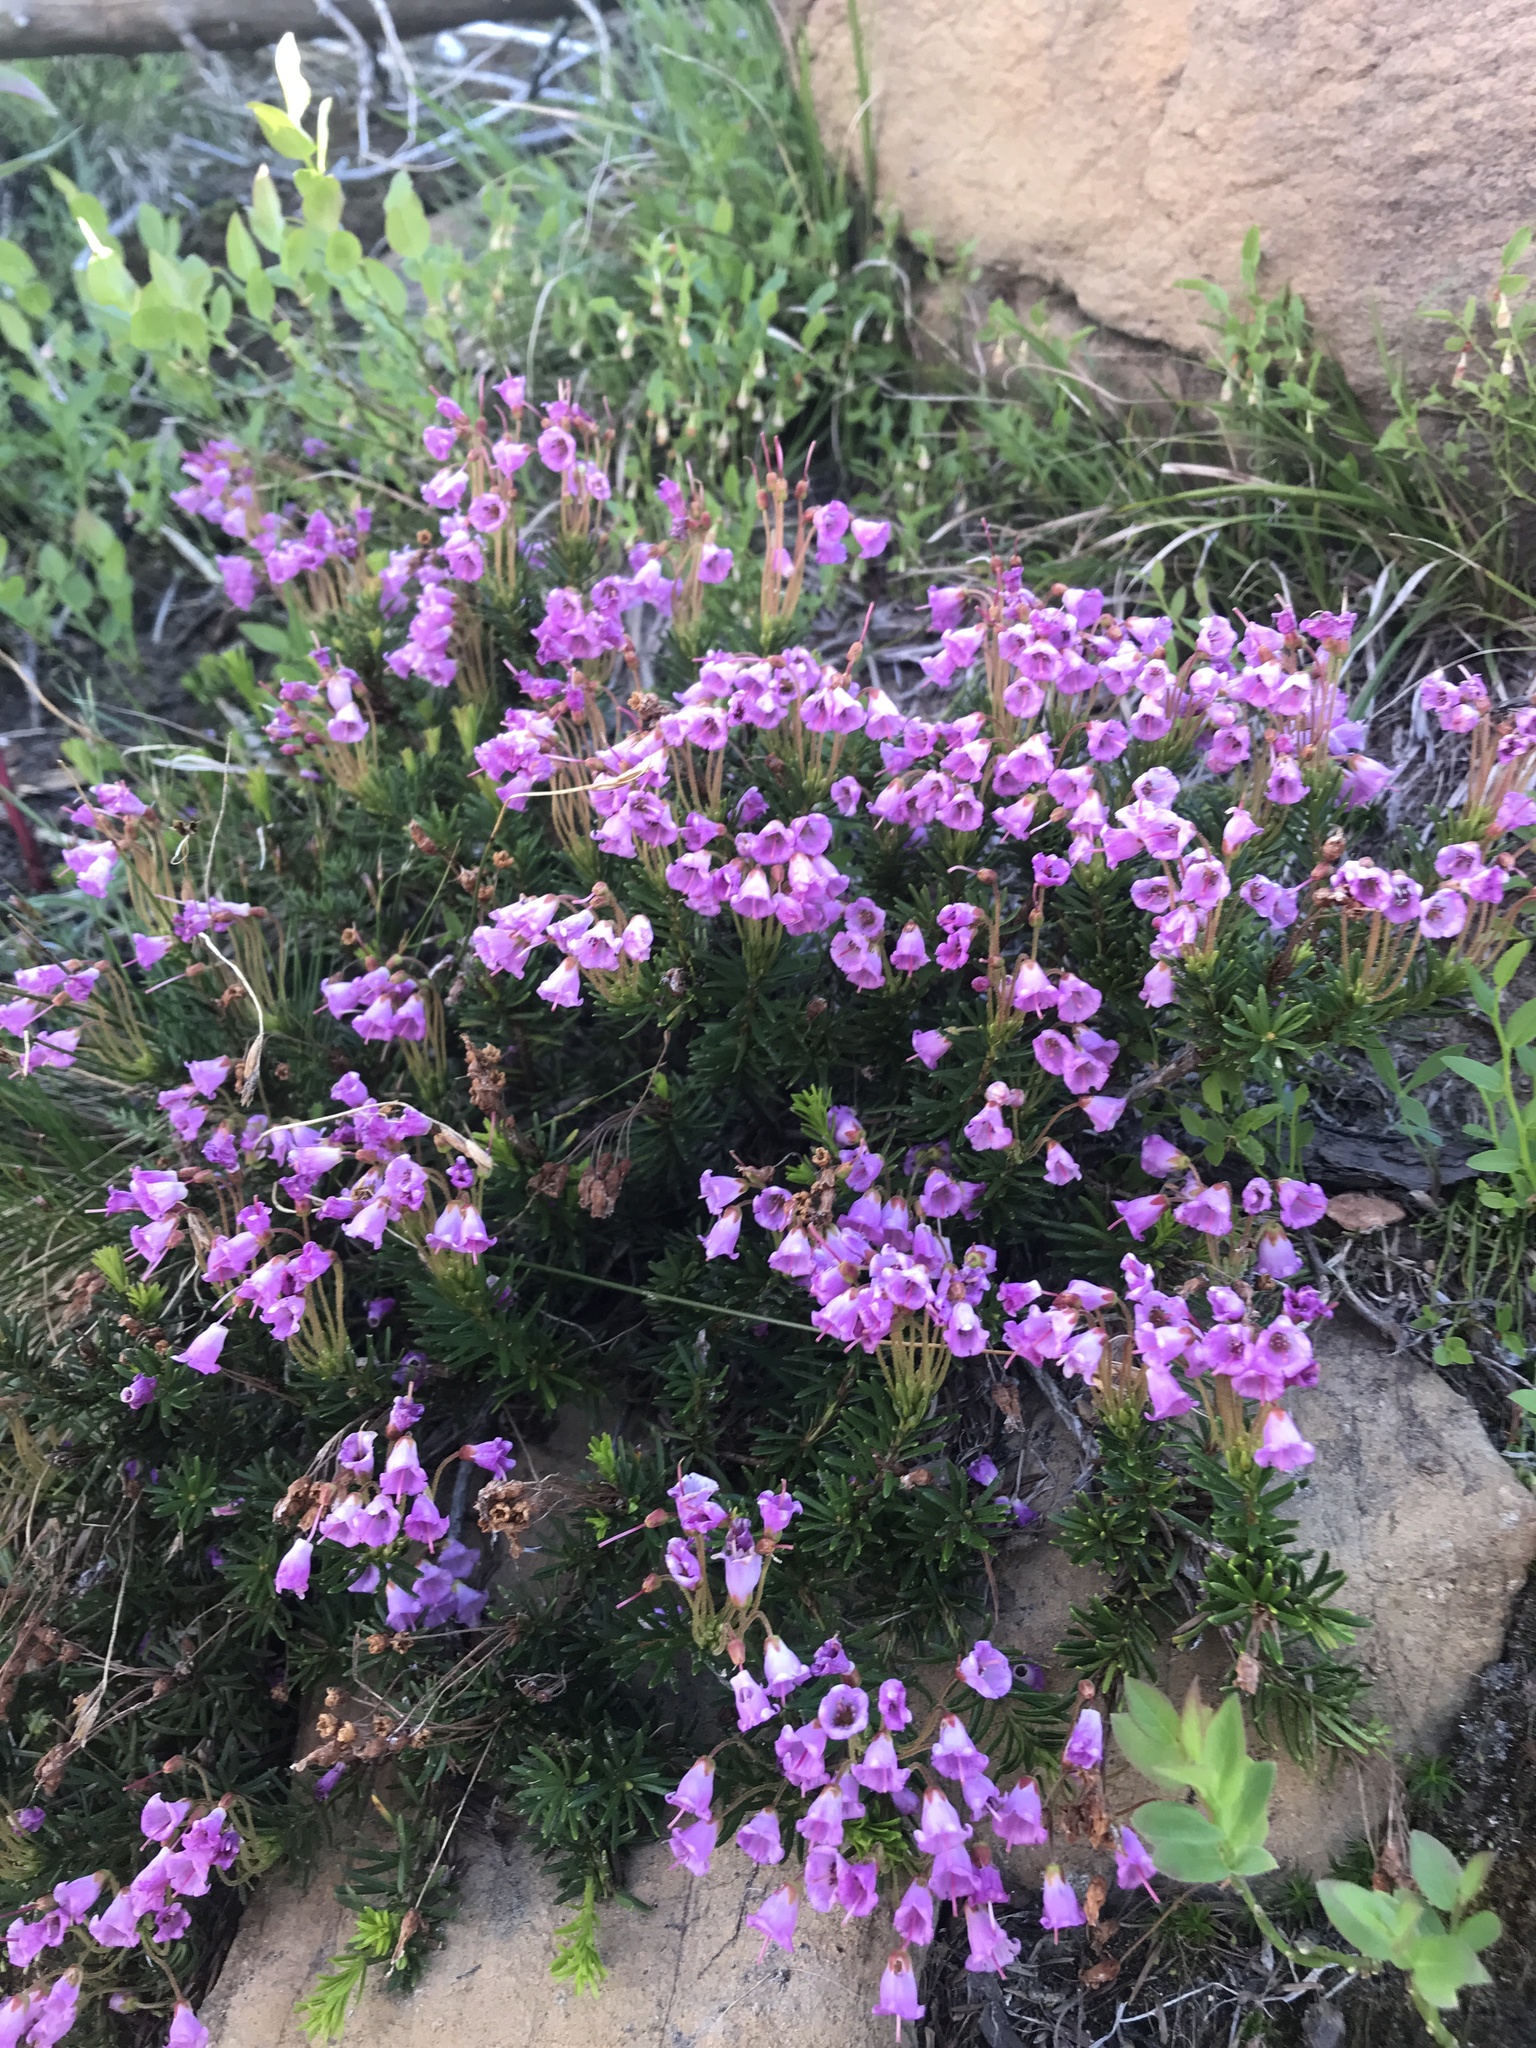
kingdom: Plantae
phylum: Tracheophyta
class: Magnoliopsida
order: Ericales
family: Ericaceae
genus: Phyllodoce
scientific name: Phyllodoce empetriformis
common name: Pink mountain heather
